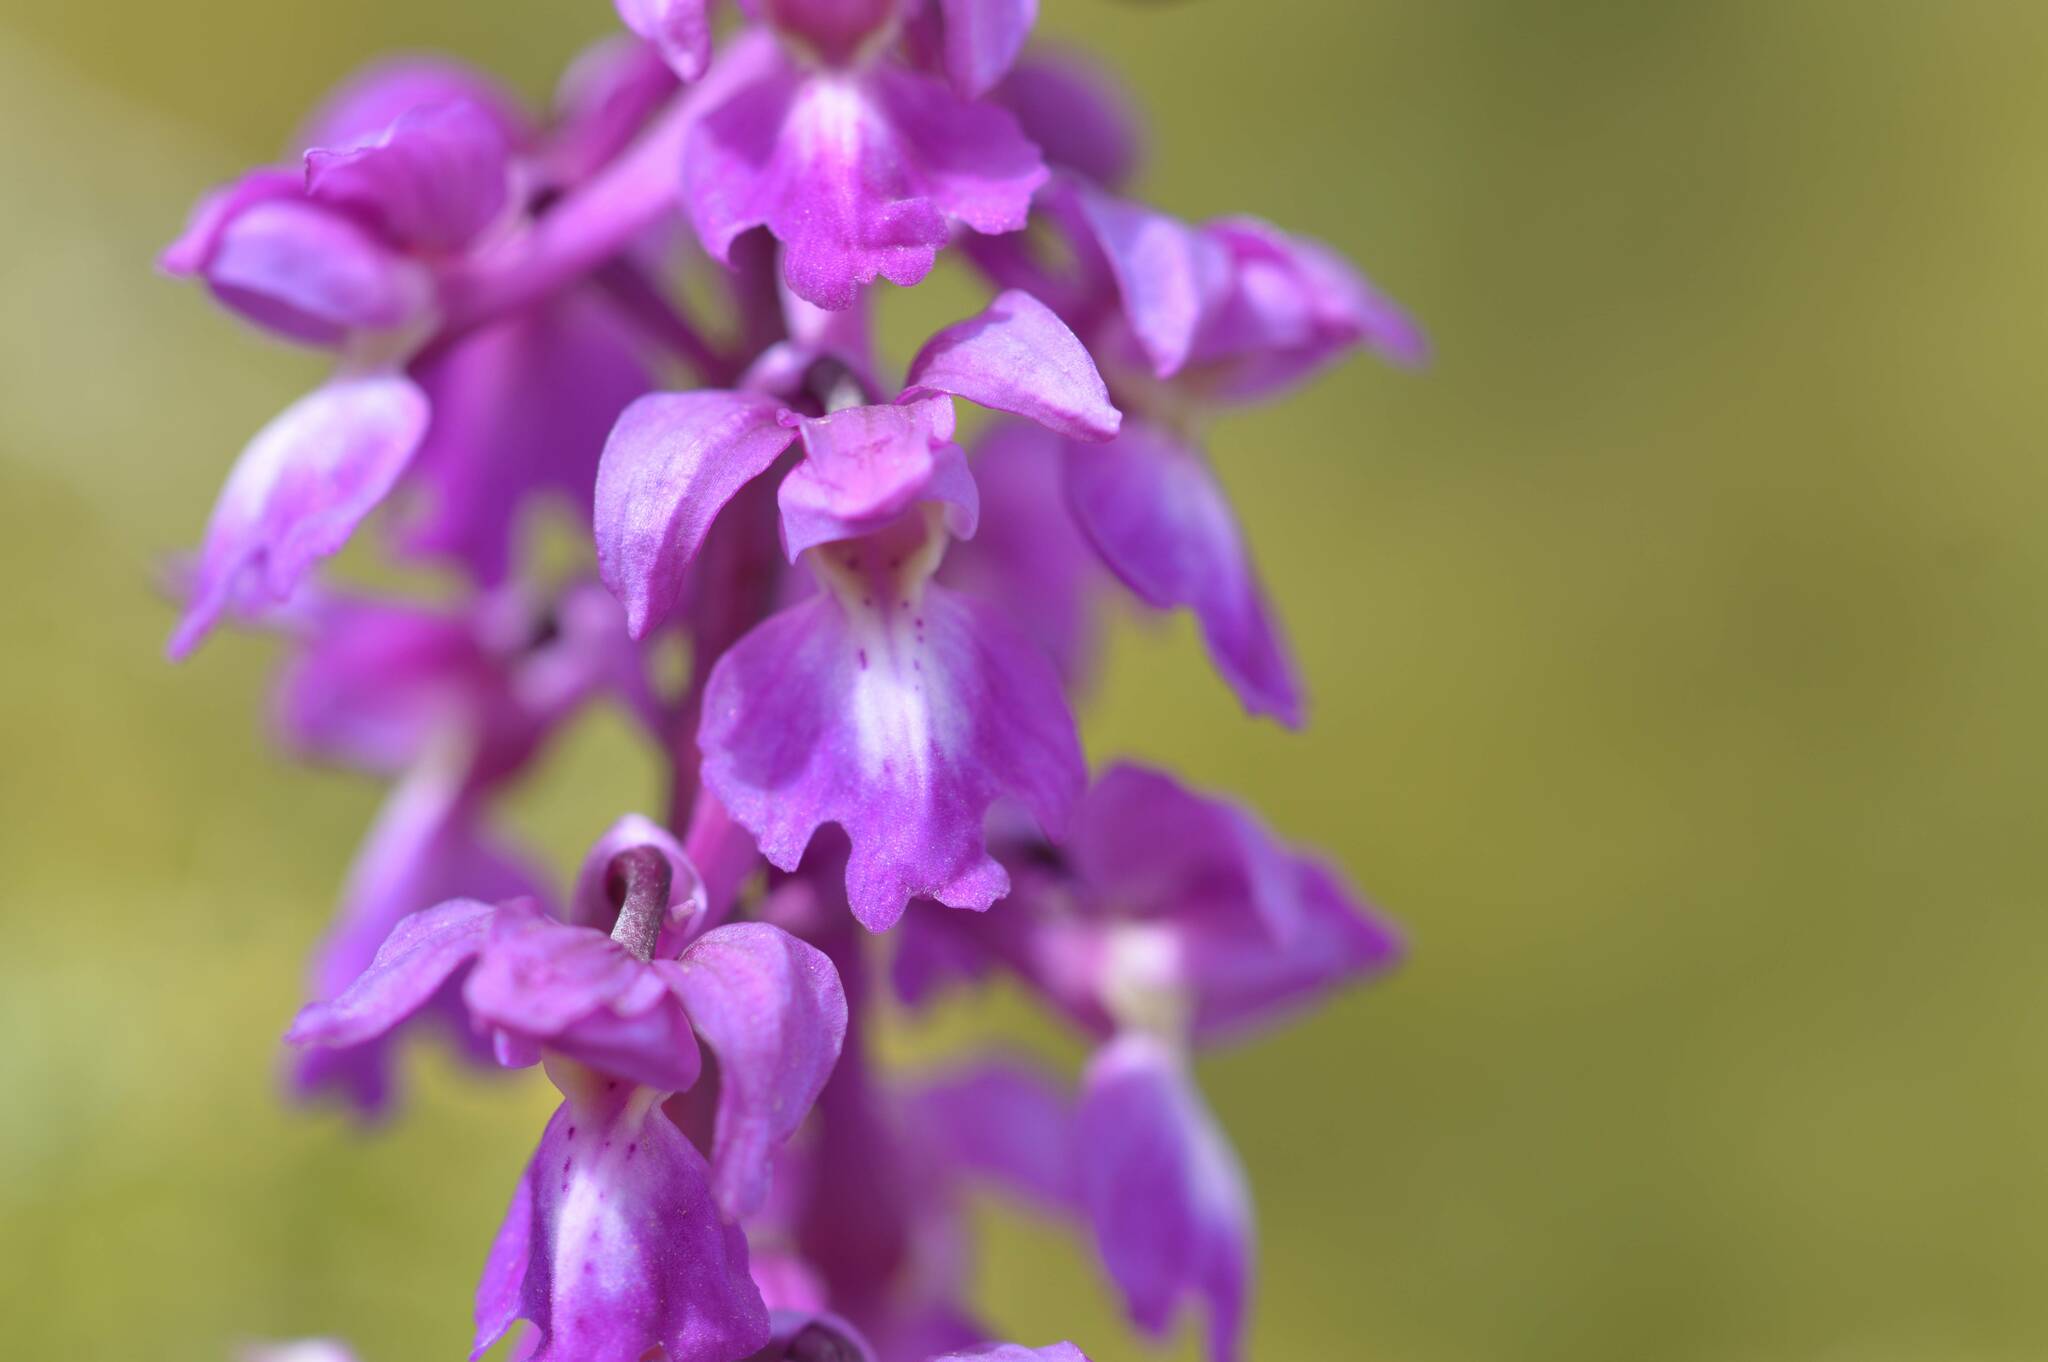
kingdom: Plantae
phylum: Tracheophyta
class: Liliopsida
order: Asparagales
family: Orchidaceae
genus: Orchis
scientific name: Orchis mascula
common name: Early-purple orchid
